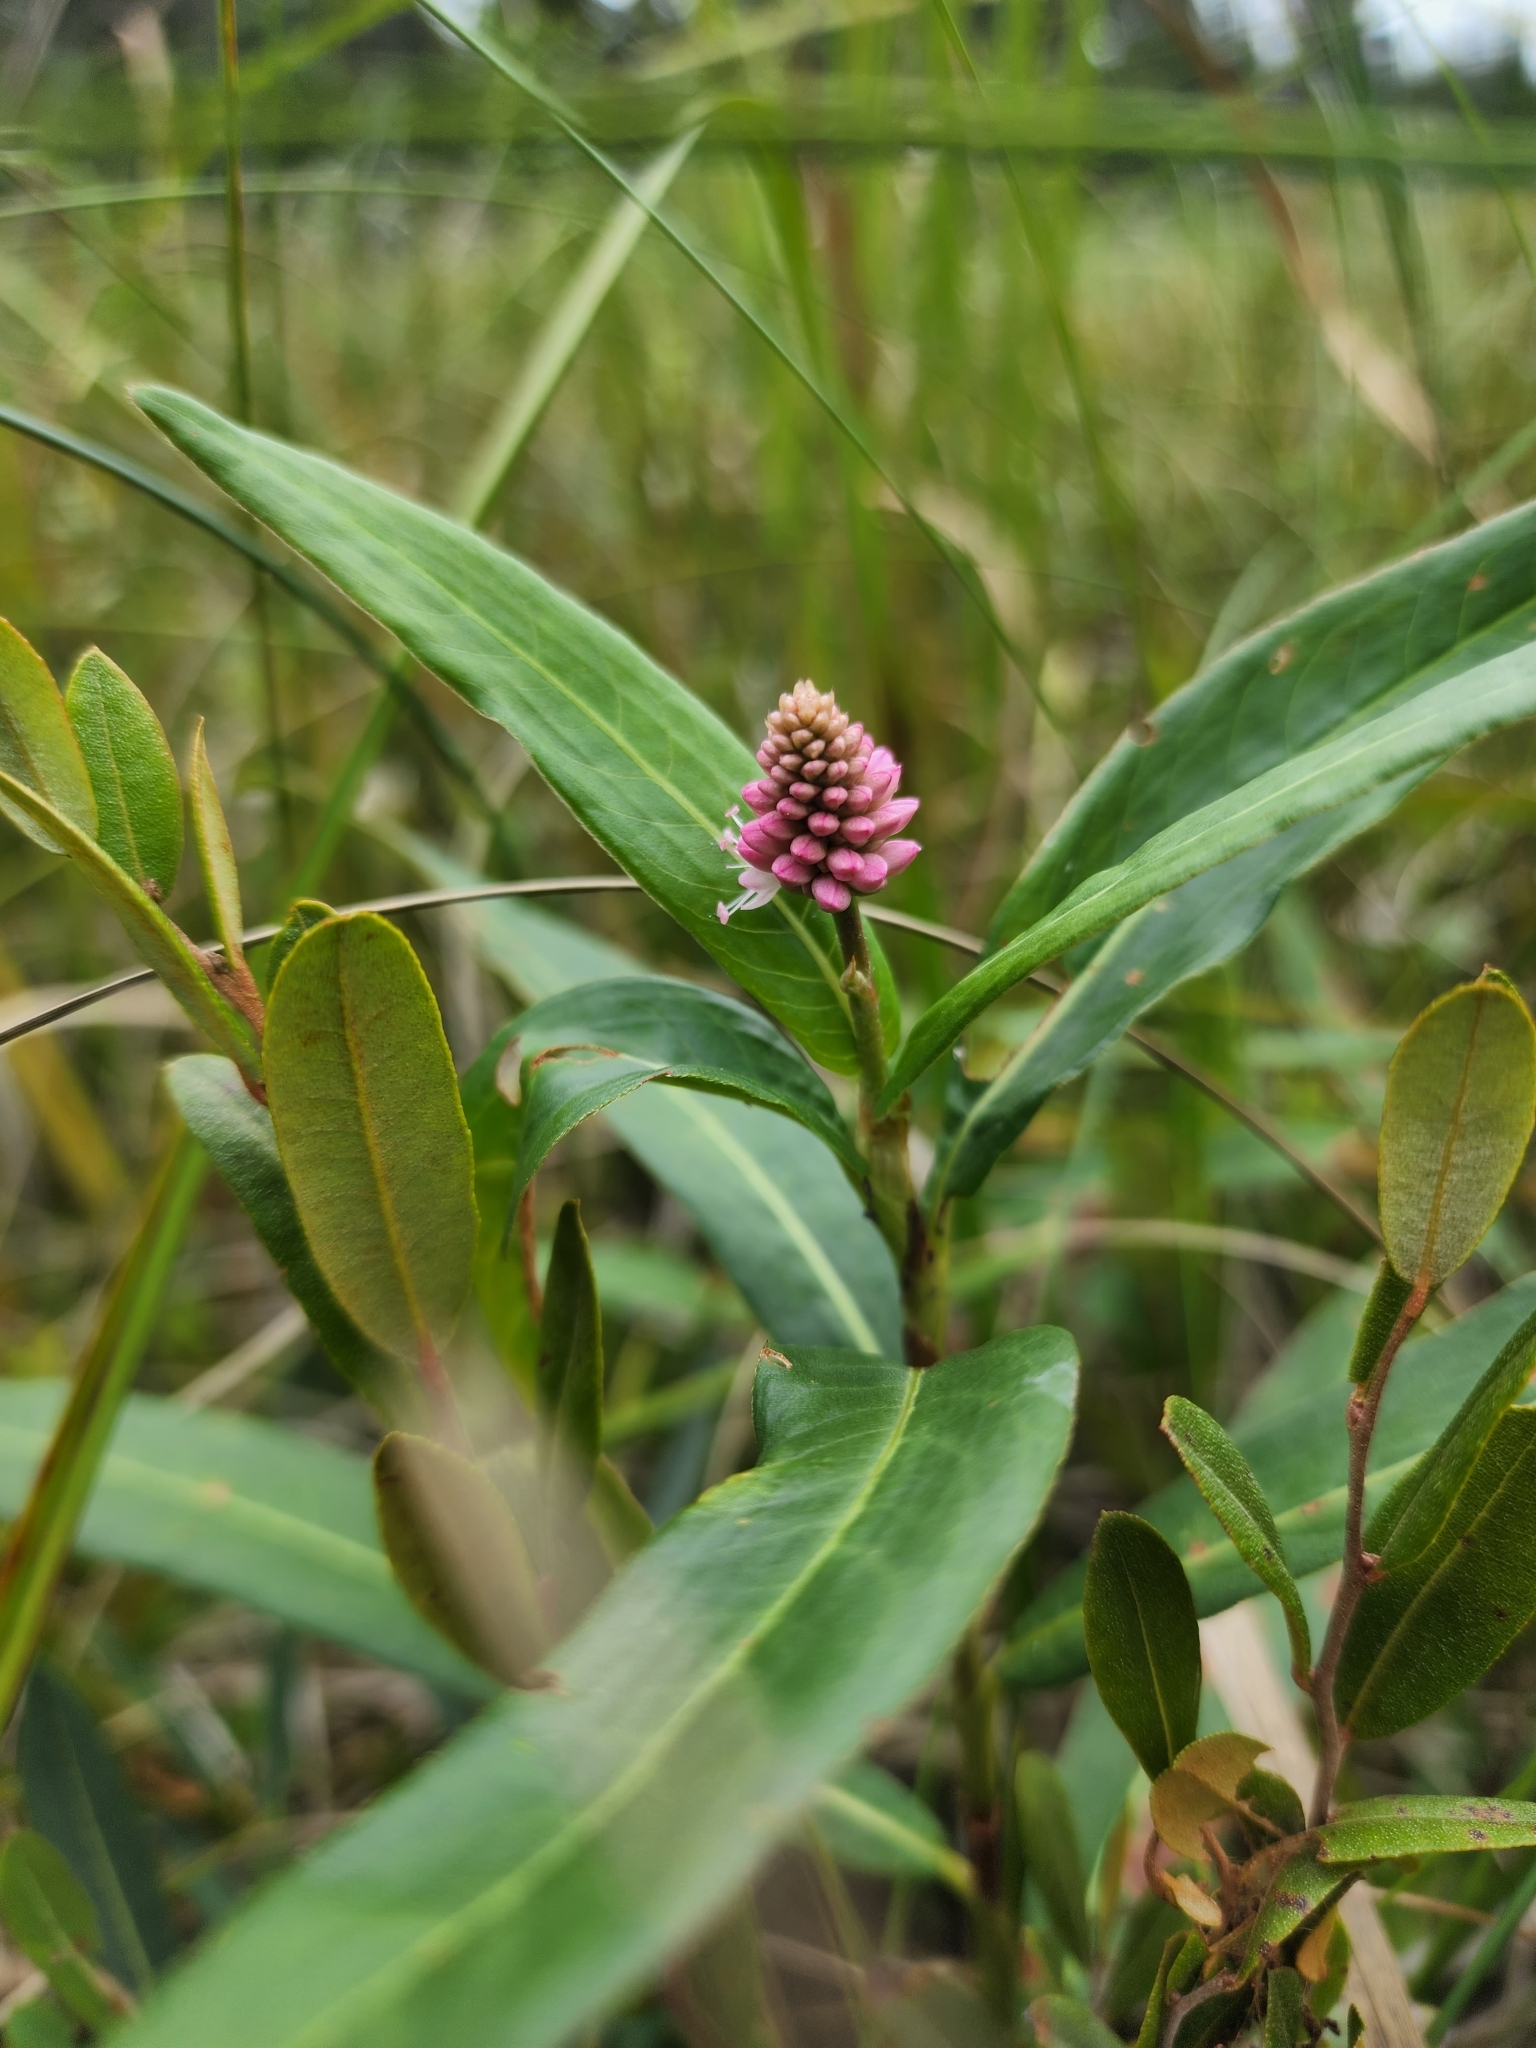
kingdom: Plantae
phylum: Tracheophyta
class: Magnoliopsida
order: Caryophyllales
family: Polygonaceae
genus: Persicaria
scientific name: Persicaria amphibia
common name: Amphibious bistort
